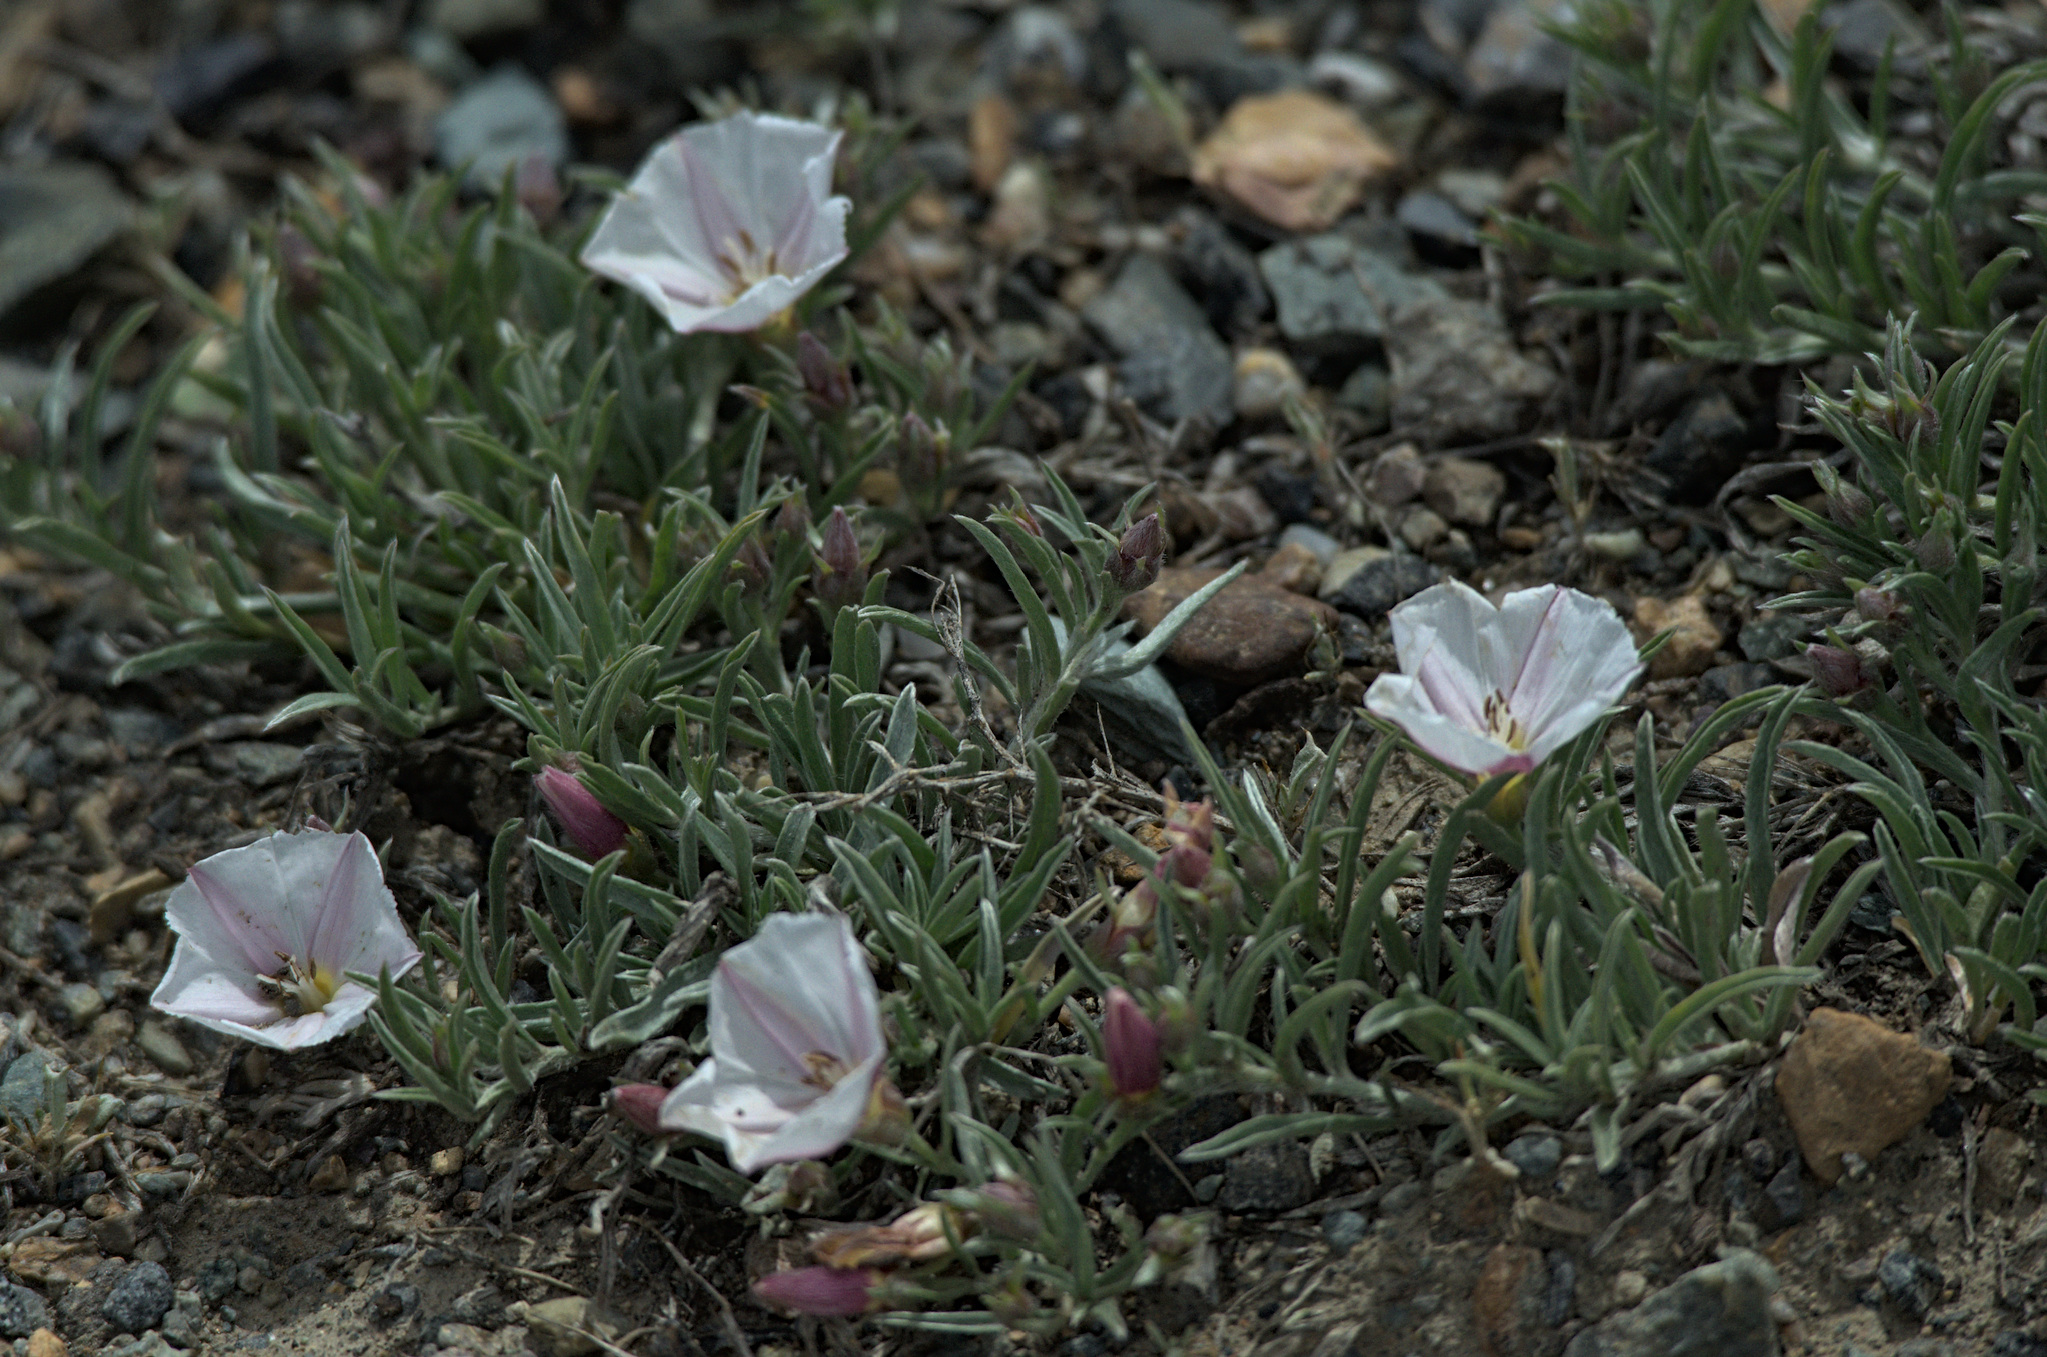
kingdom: Plantae
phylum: Tracheophyta
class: Magnoliopsida
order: Solanales
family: Convolvulaceae
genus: Convolvulus
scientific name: Convolvulus ammannii
